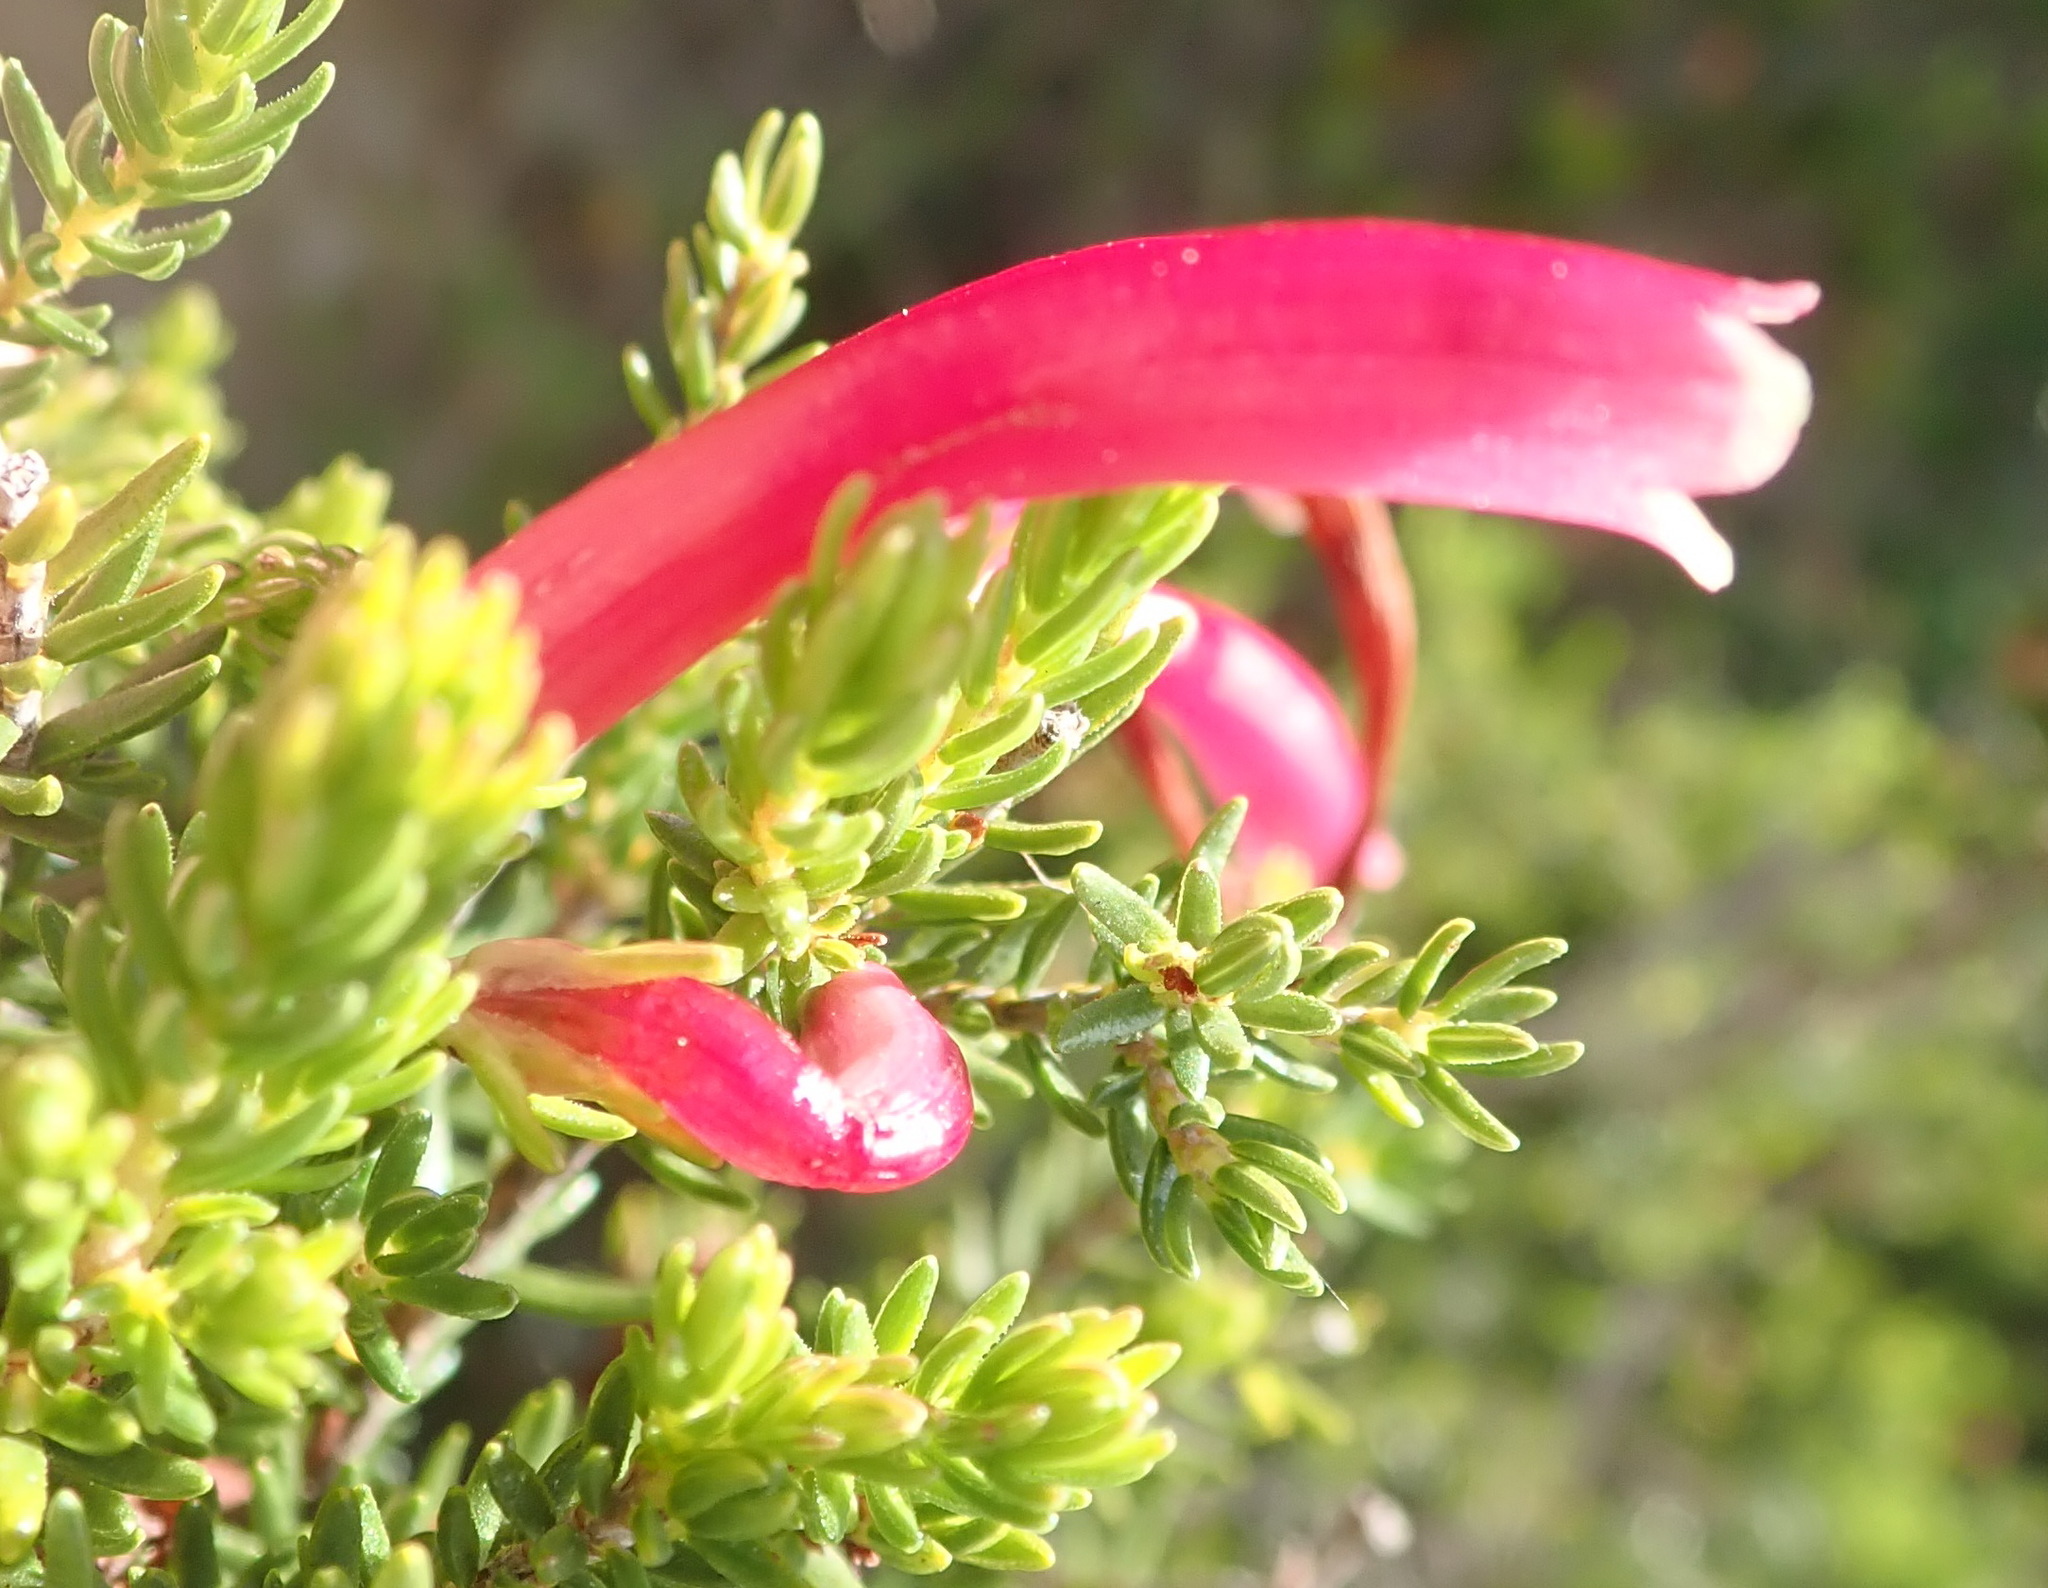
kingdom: Plantae
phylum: Tracheophyta
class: Magnoliopsida
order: Ericales
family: Ericaceae
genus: Erica
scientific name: Erica discolor
